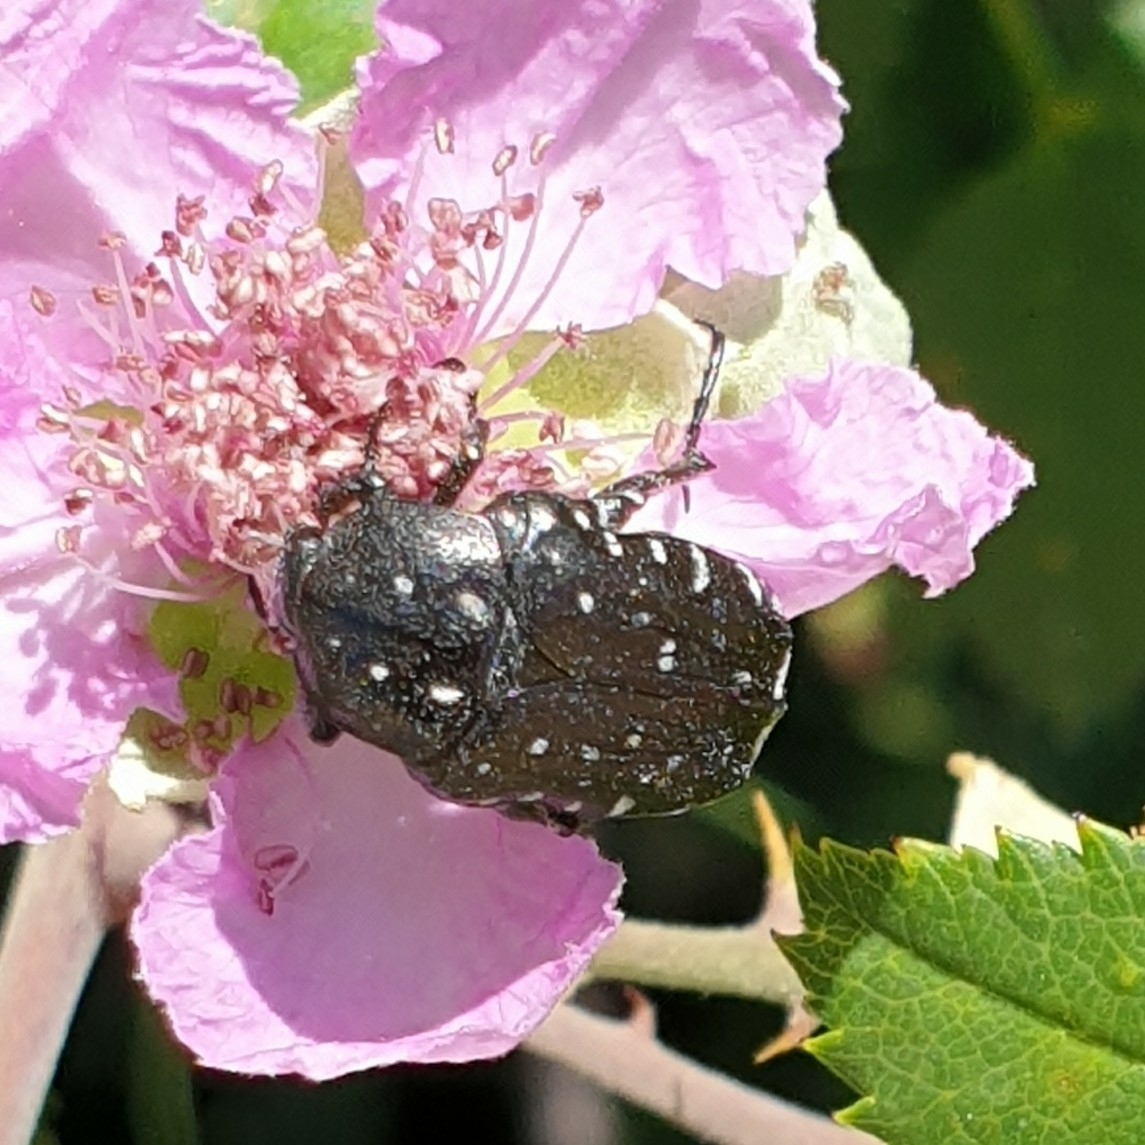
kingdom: Animalia
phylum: Arthropoda
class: Insecta
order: Coleoptera
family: Scarabaeidae
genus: Oxythyrea
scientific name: Oxythyrea funesta
